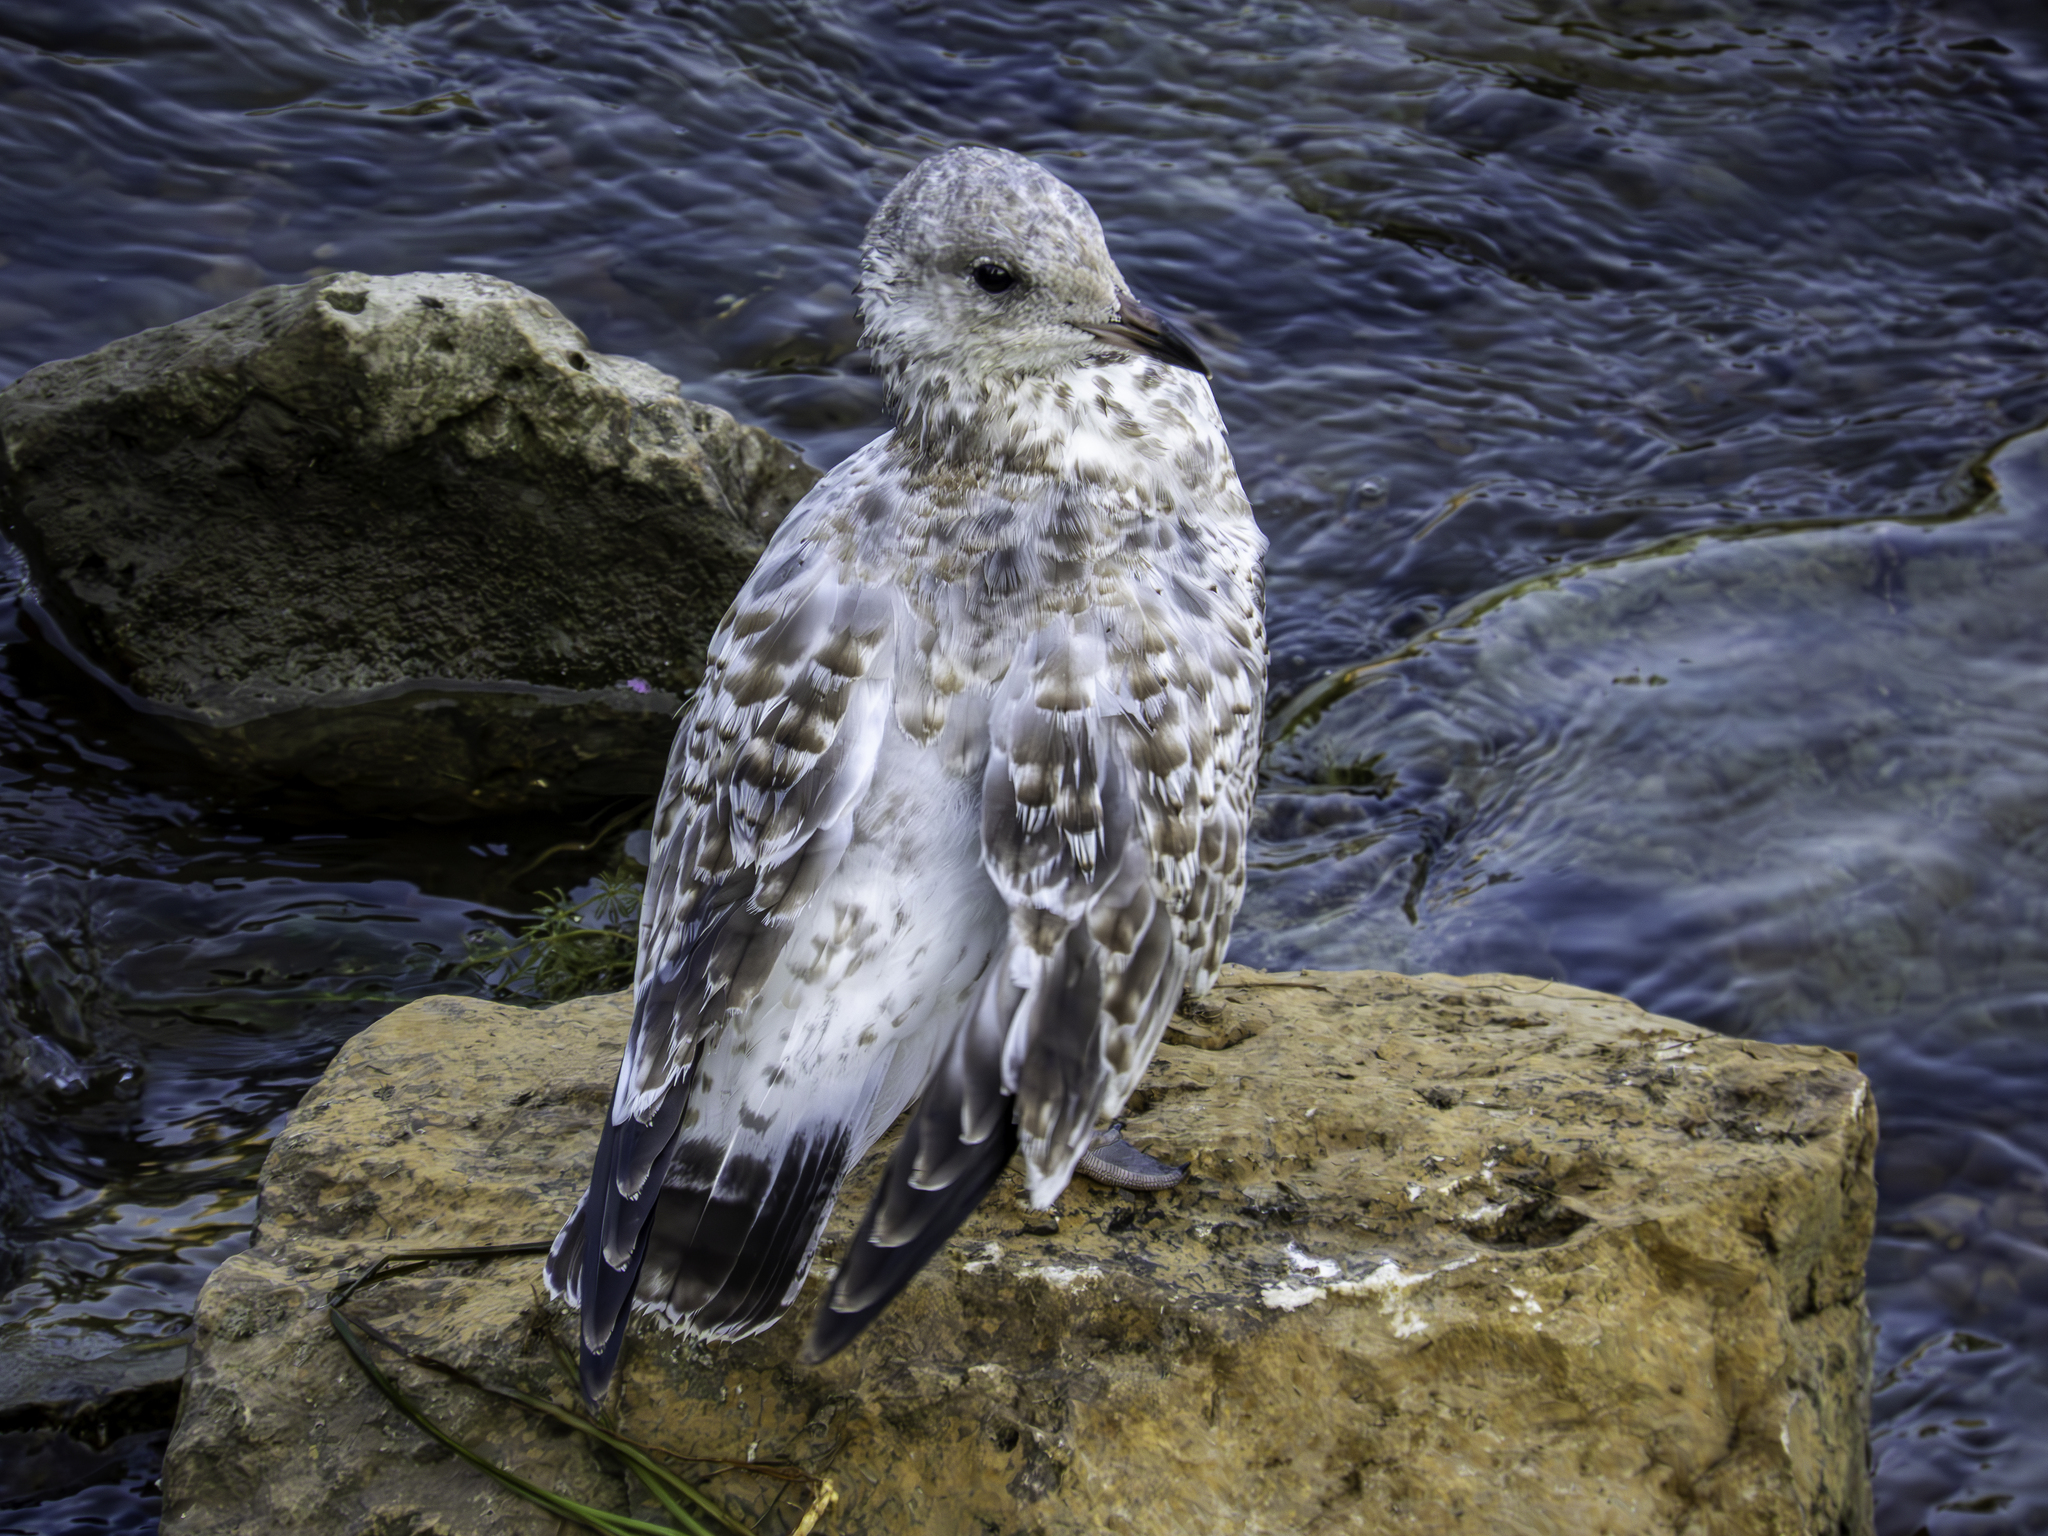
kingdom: Animalia
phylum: Chordata
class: Aves
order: Charadriiformes
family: Laridae
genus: Larus
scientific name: Larus delawarensis
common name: Ring-billed gull
